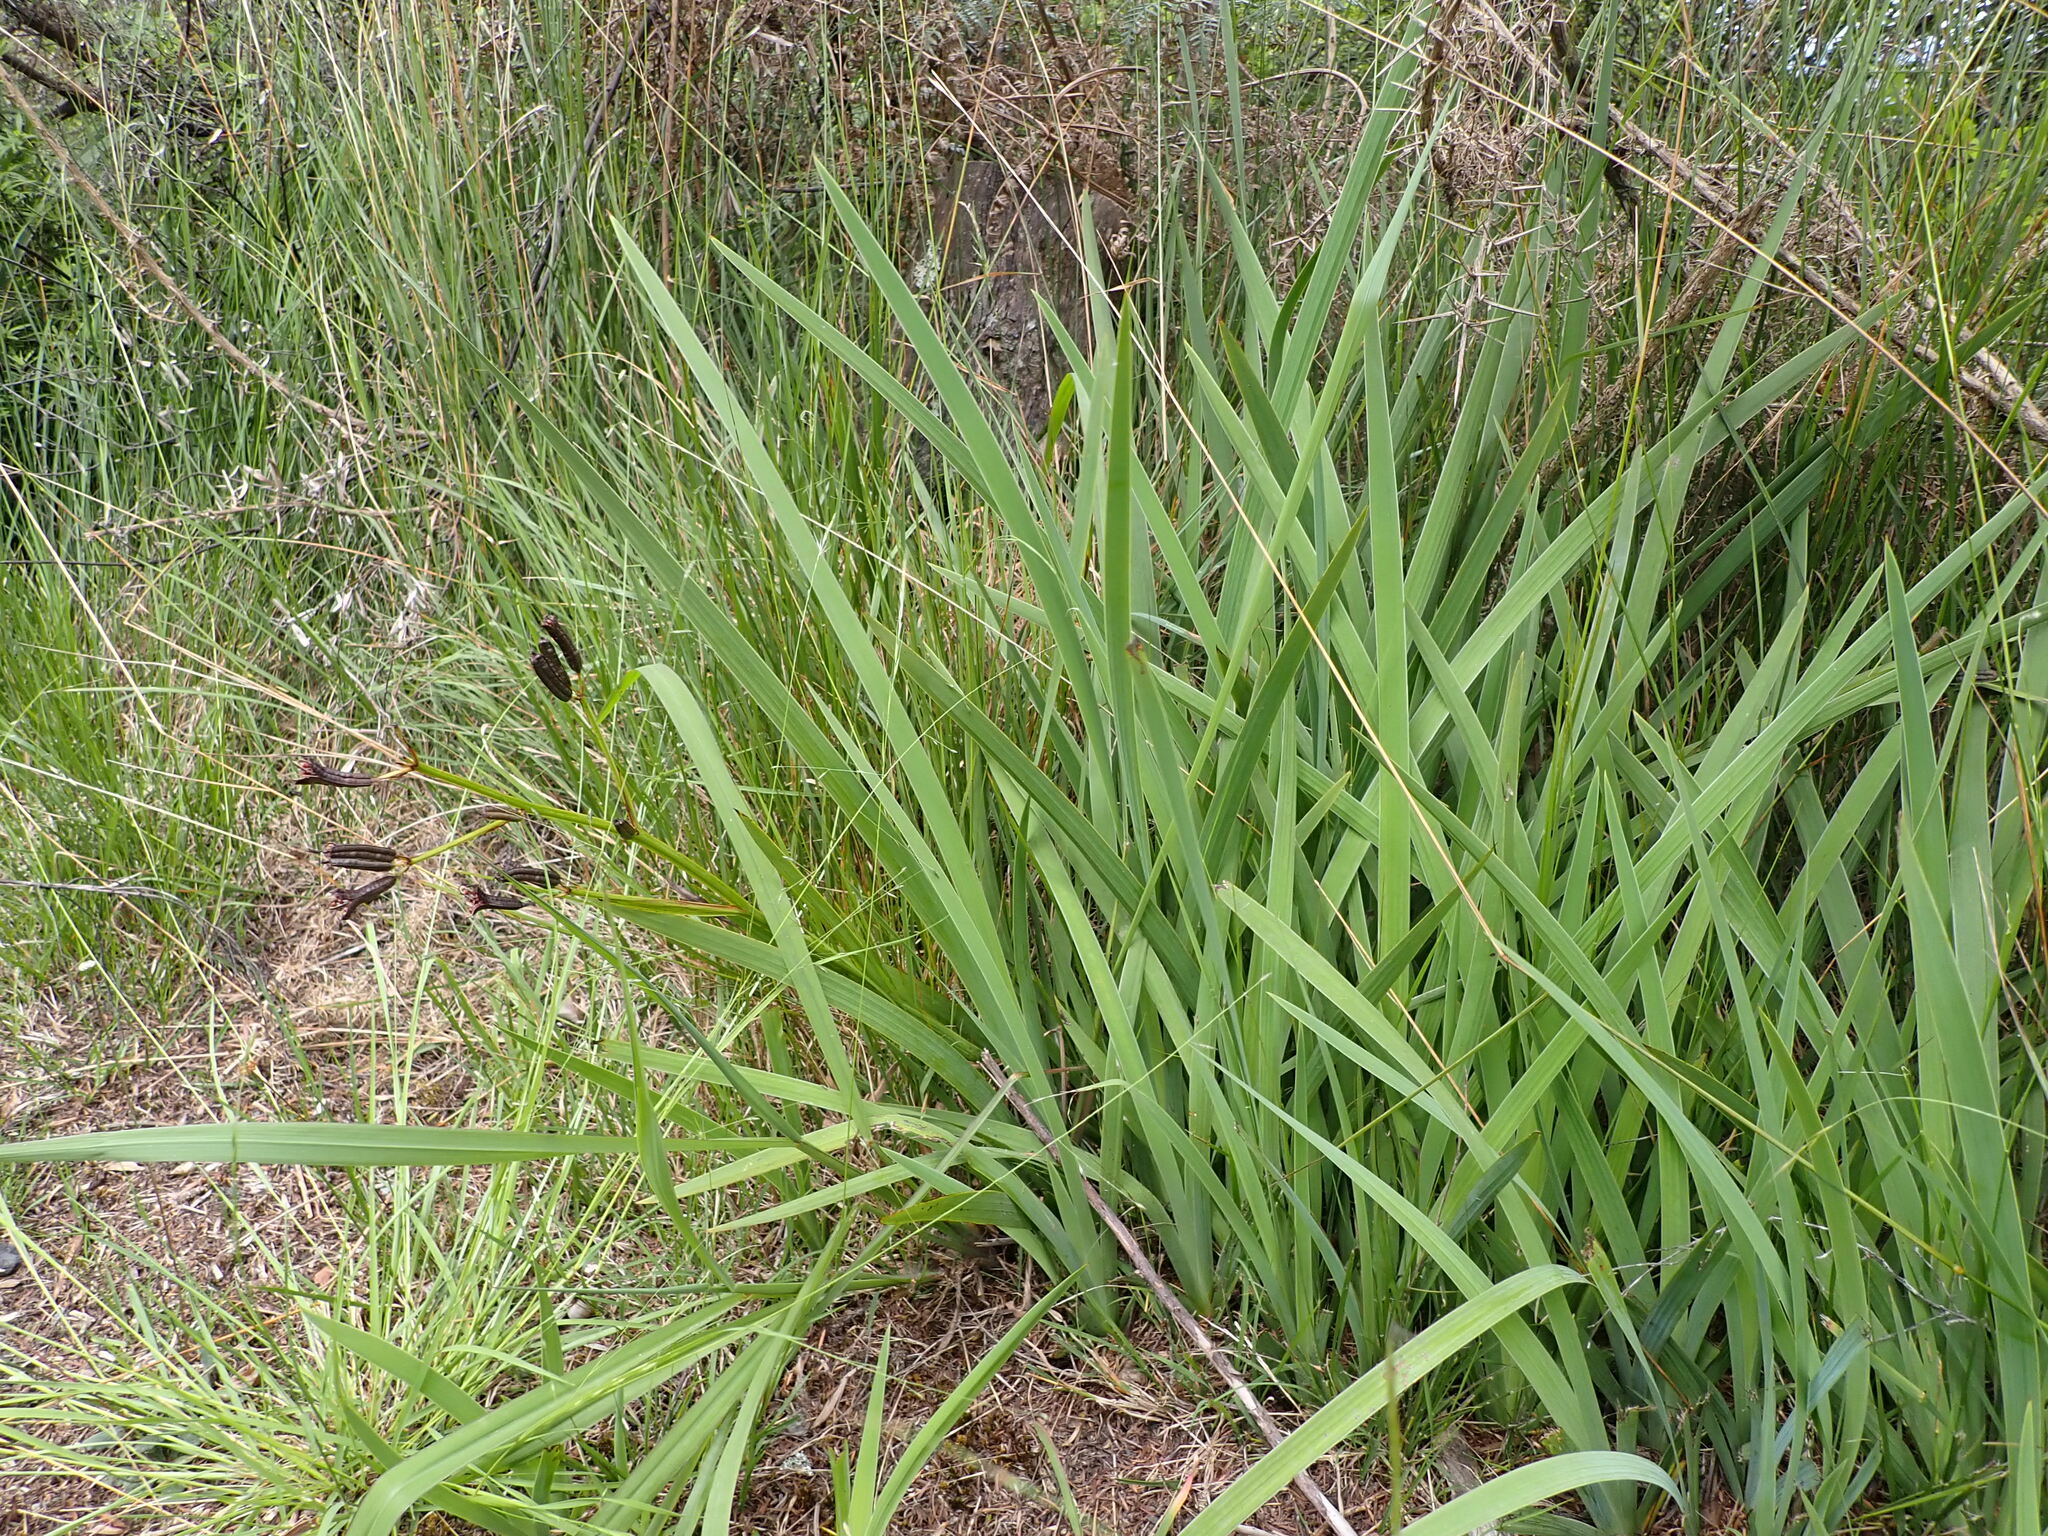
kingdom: Plantae
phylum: Tracheophyta
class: Liliopsida
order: Asparagales
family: Iridaceae
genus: Aristea
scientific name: Aristea ecklonii
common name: Blue corn-lily
